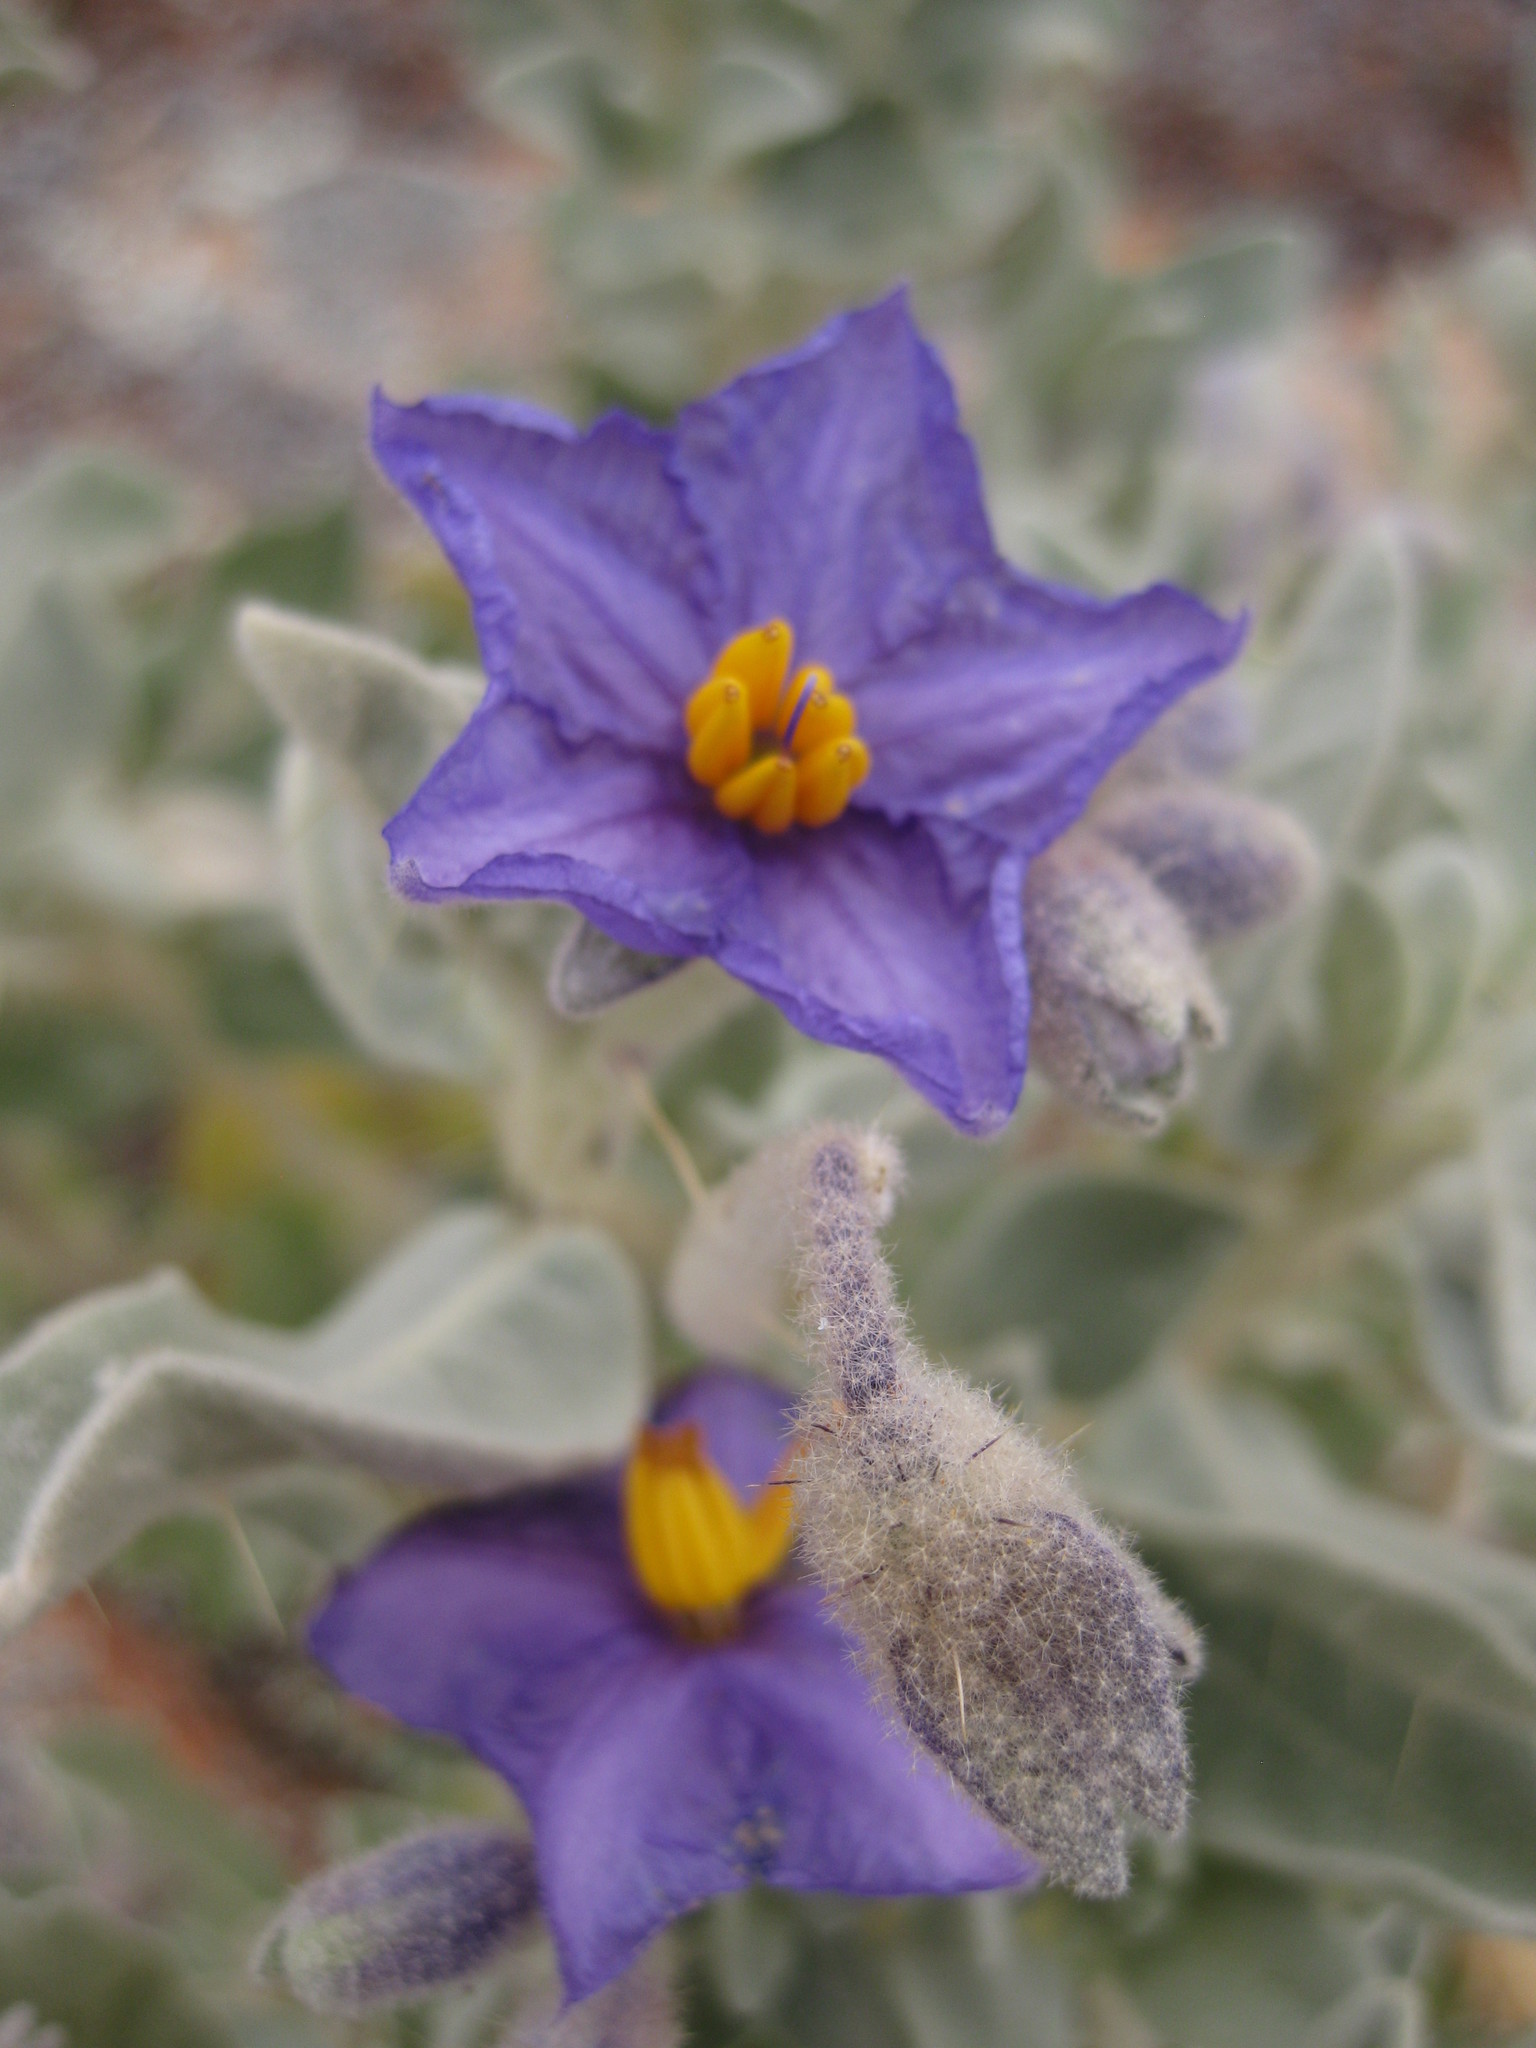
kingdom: Plantae
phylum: Tracheophyta
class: Magnoliopsida
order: Solanales
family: Solanaceae
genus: Solanum
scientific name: Solanum lasiophyllum
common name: Flannelbush
